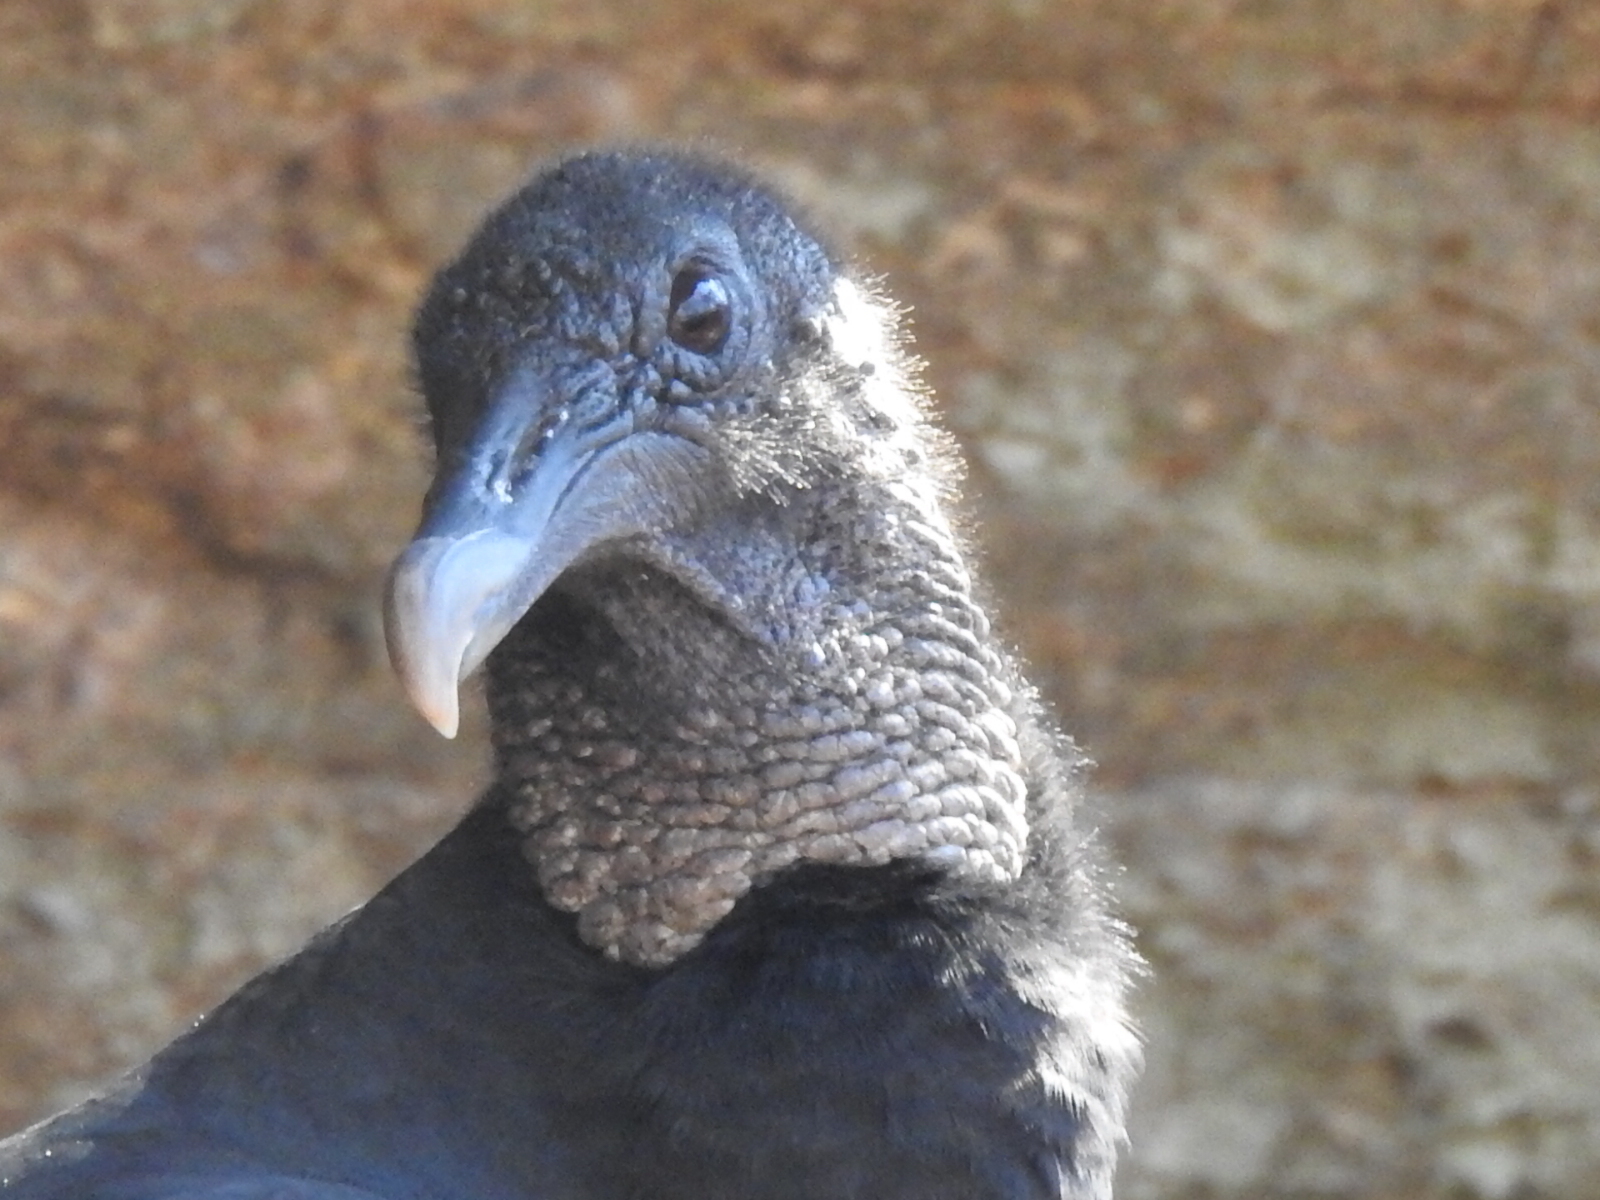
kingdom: Animalia
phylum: Chordata
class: Aves
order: Accipitriformes
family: Cathartidae
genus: Coragyps
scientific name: Coragyps atratus
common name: Black vulture
